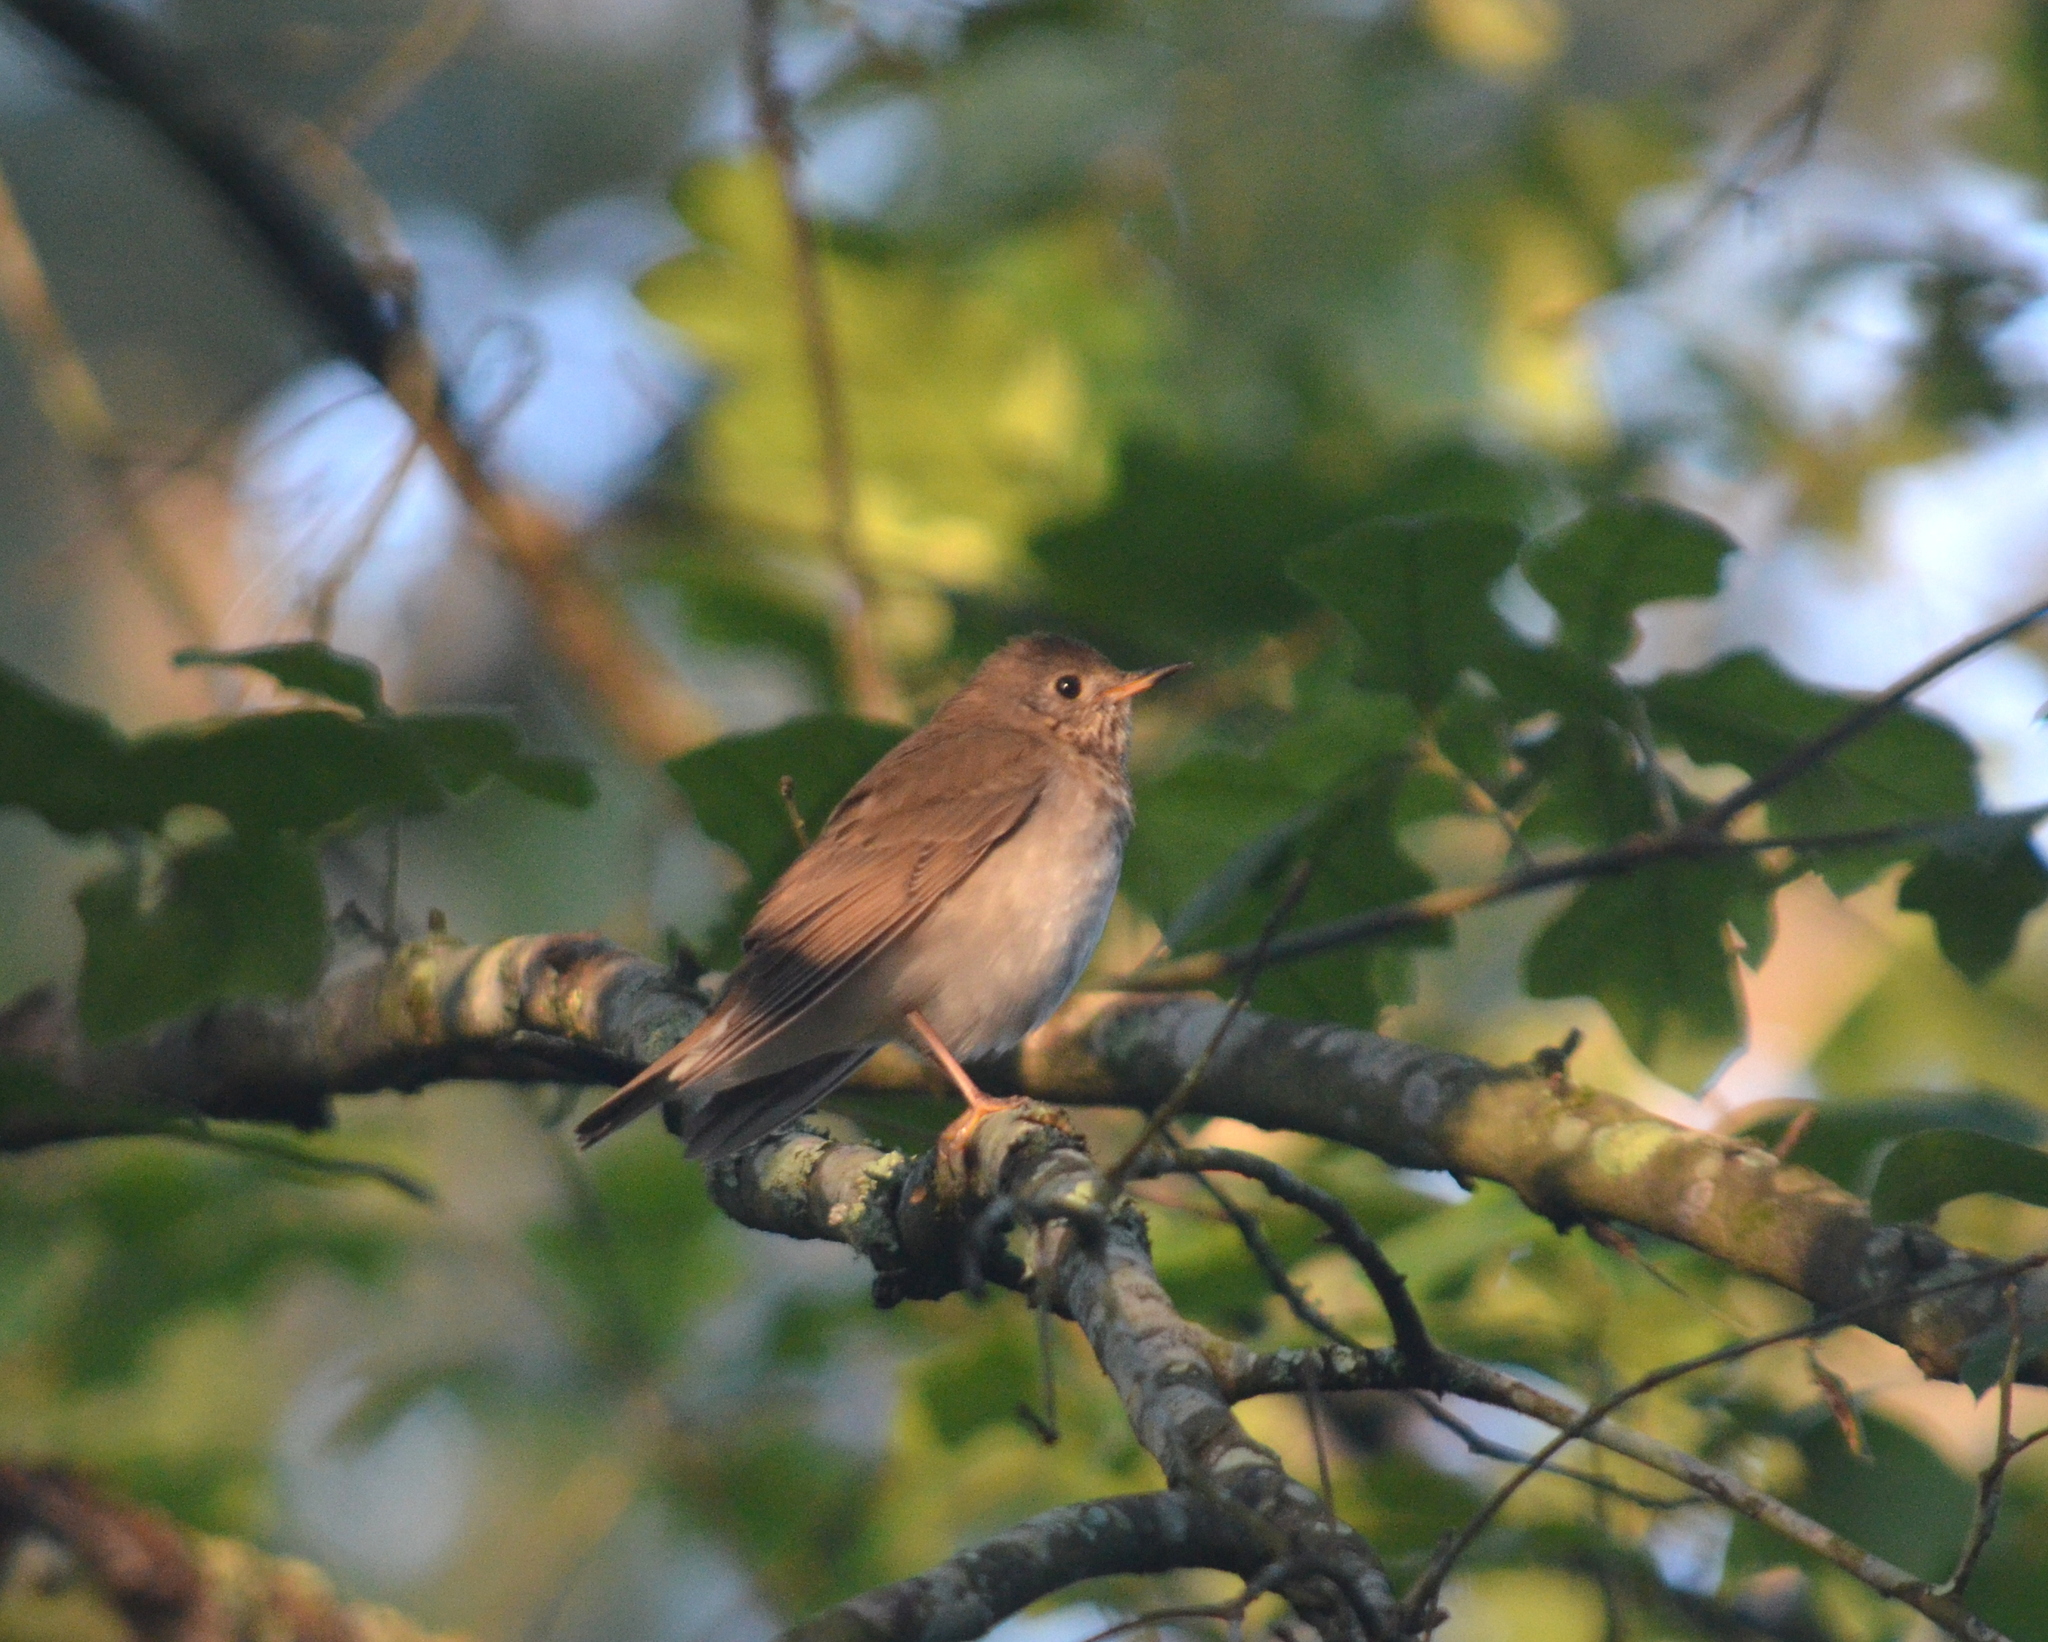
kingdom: Animalia
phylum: Chordata
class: Aves
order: Passeriformes
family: Turdidae
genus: Catharus
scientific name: Catharus minimus
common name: Grey-cheeked thrush
